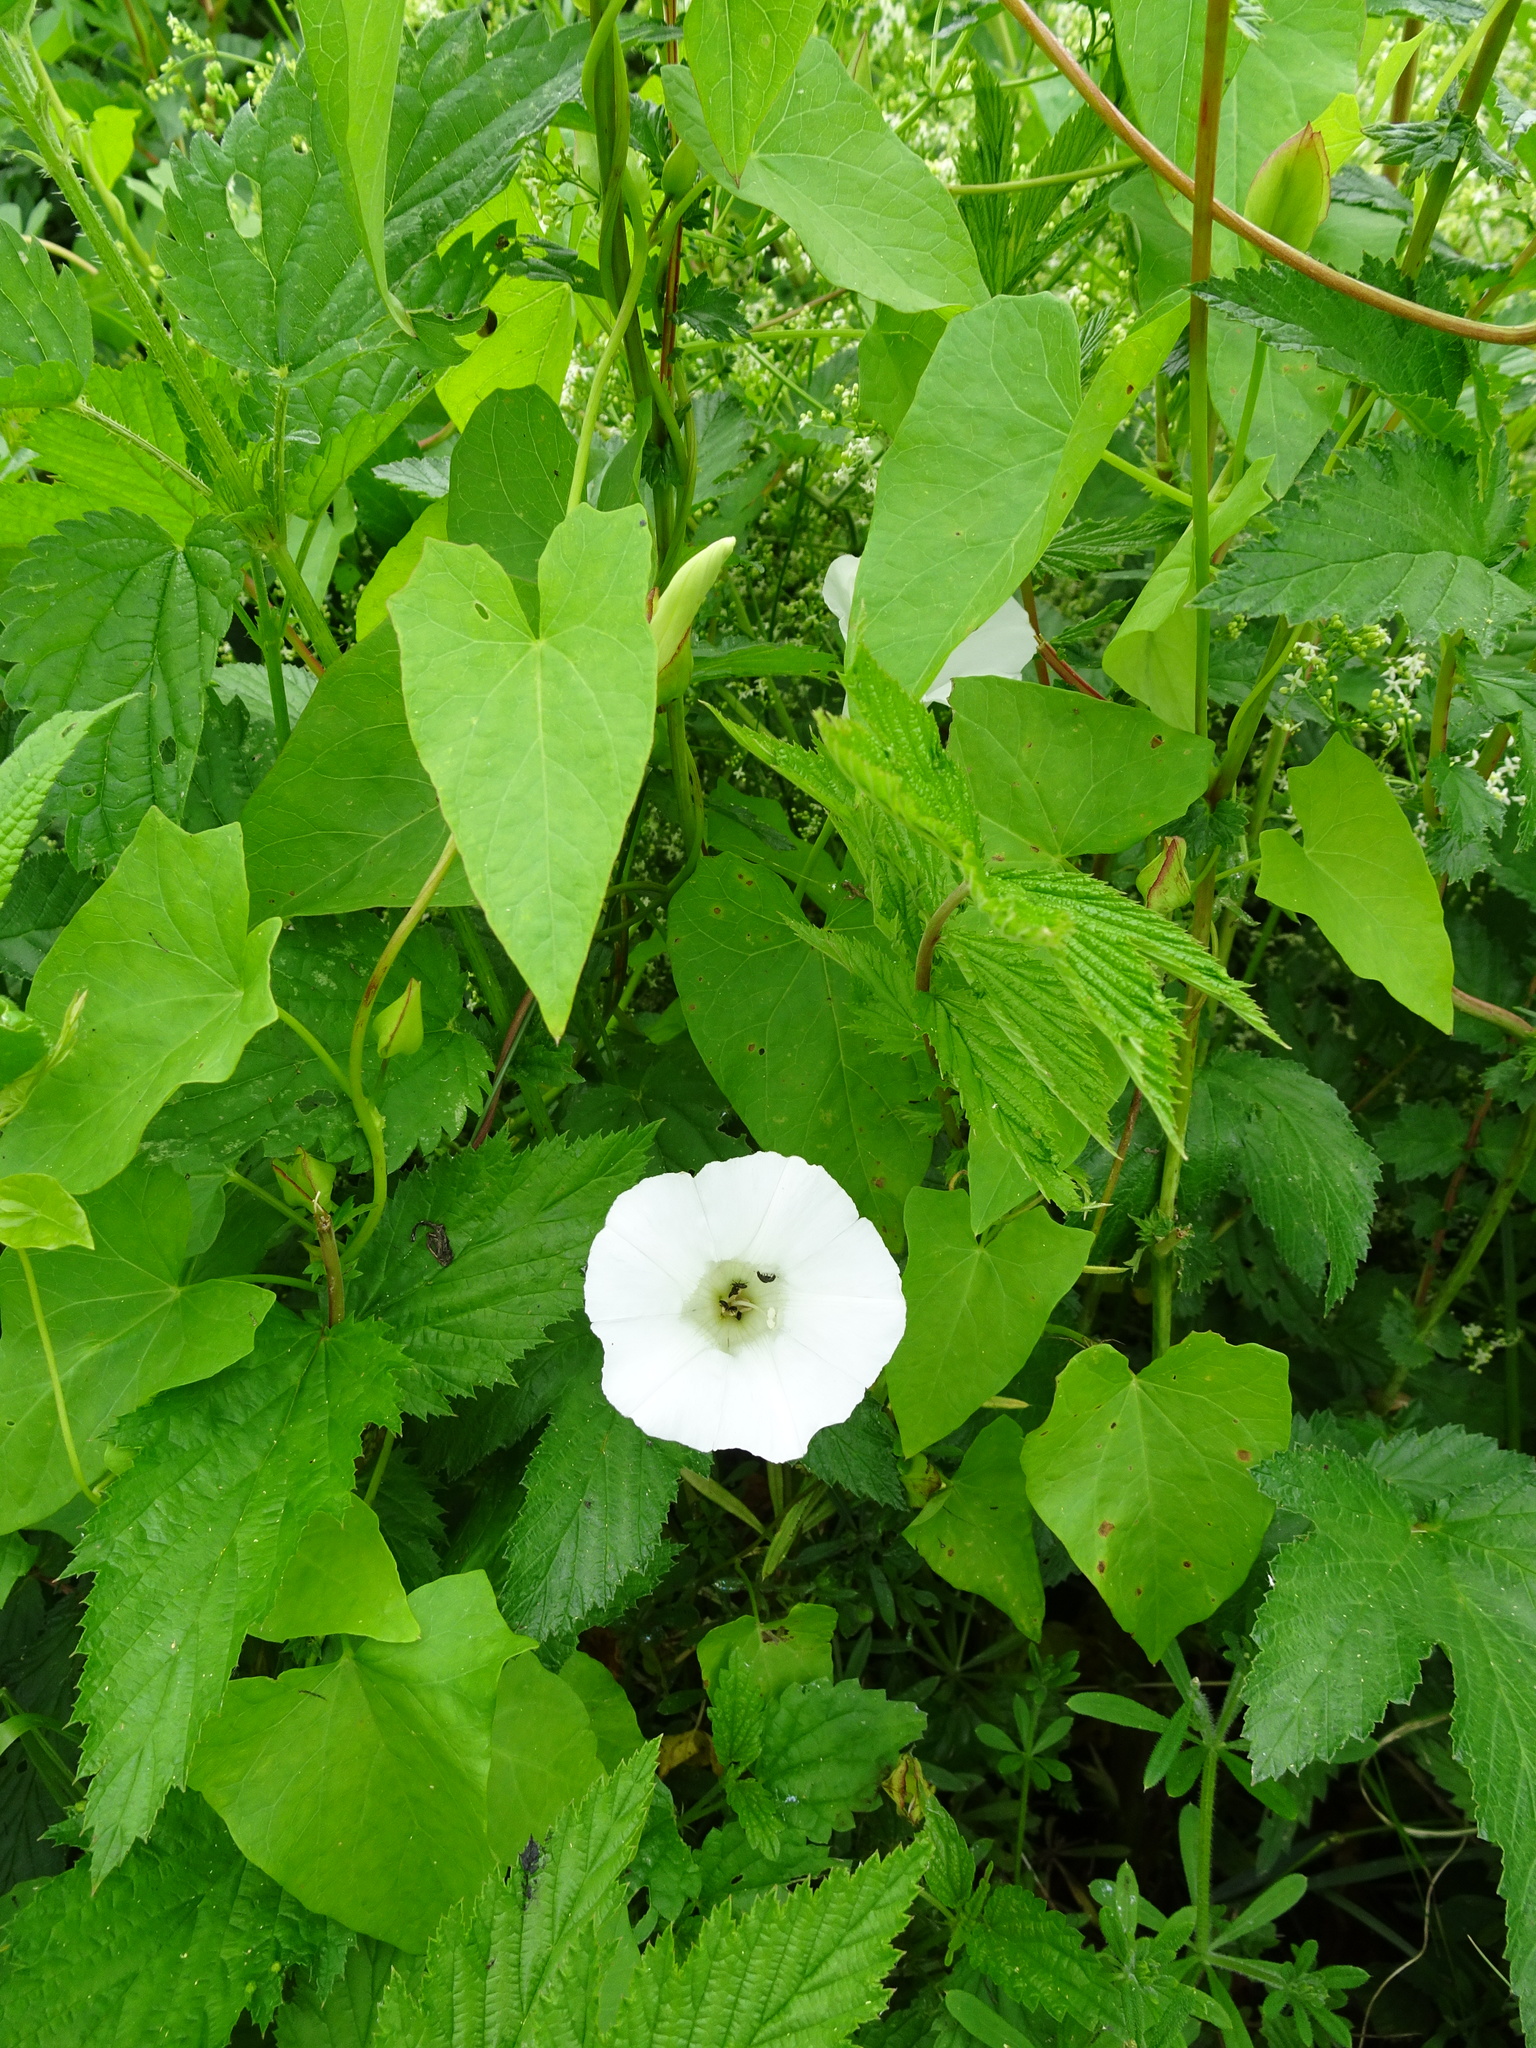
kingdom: Plantae
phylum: Tracheophyta
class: Magnoliopsida
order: Solanales
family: Convolvulaceae
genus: Calystegia
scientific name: Calystegia sepium
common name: Hedge bindweed
